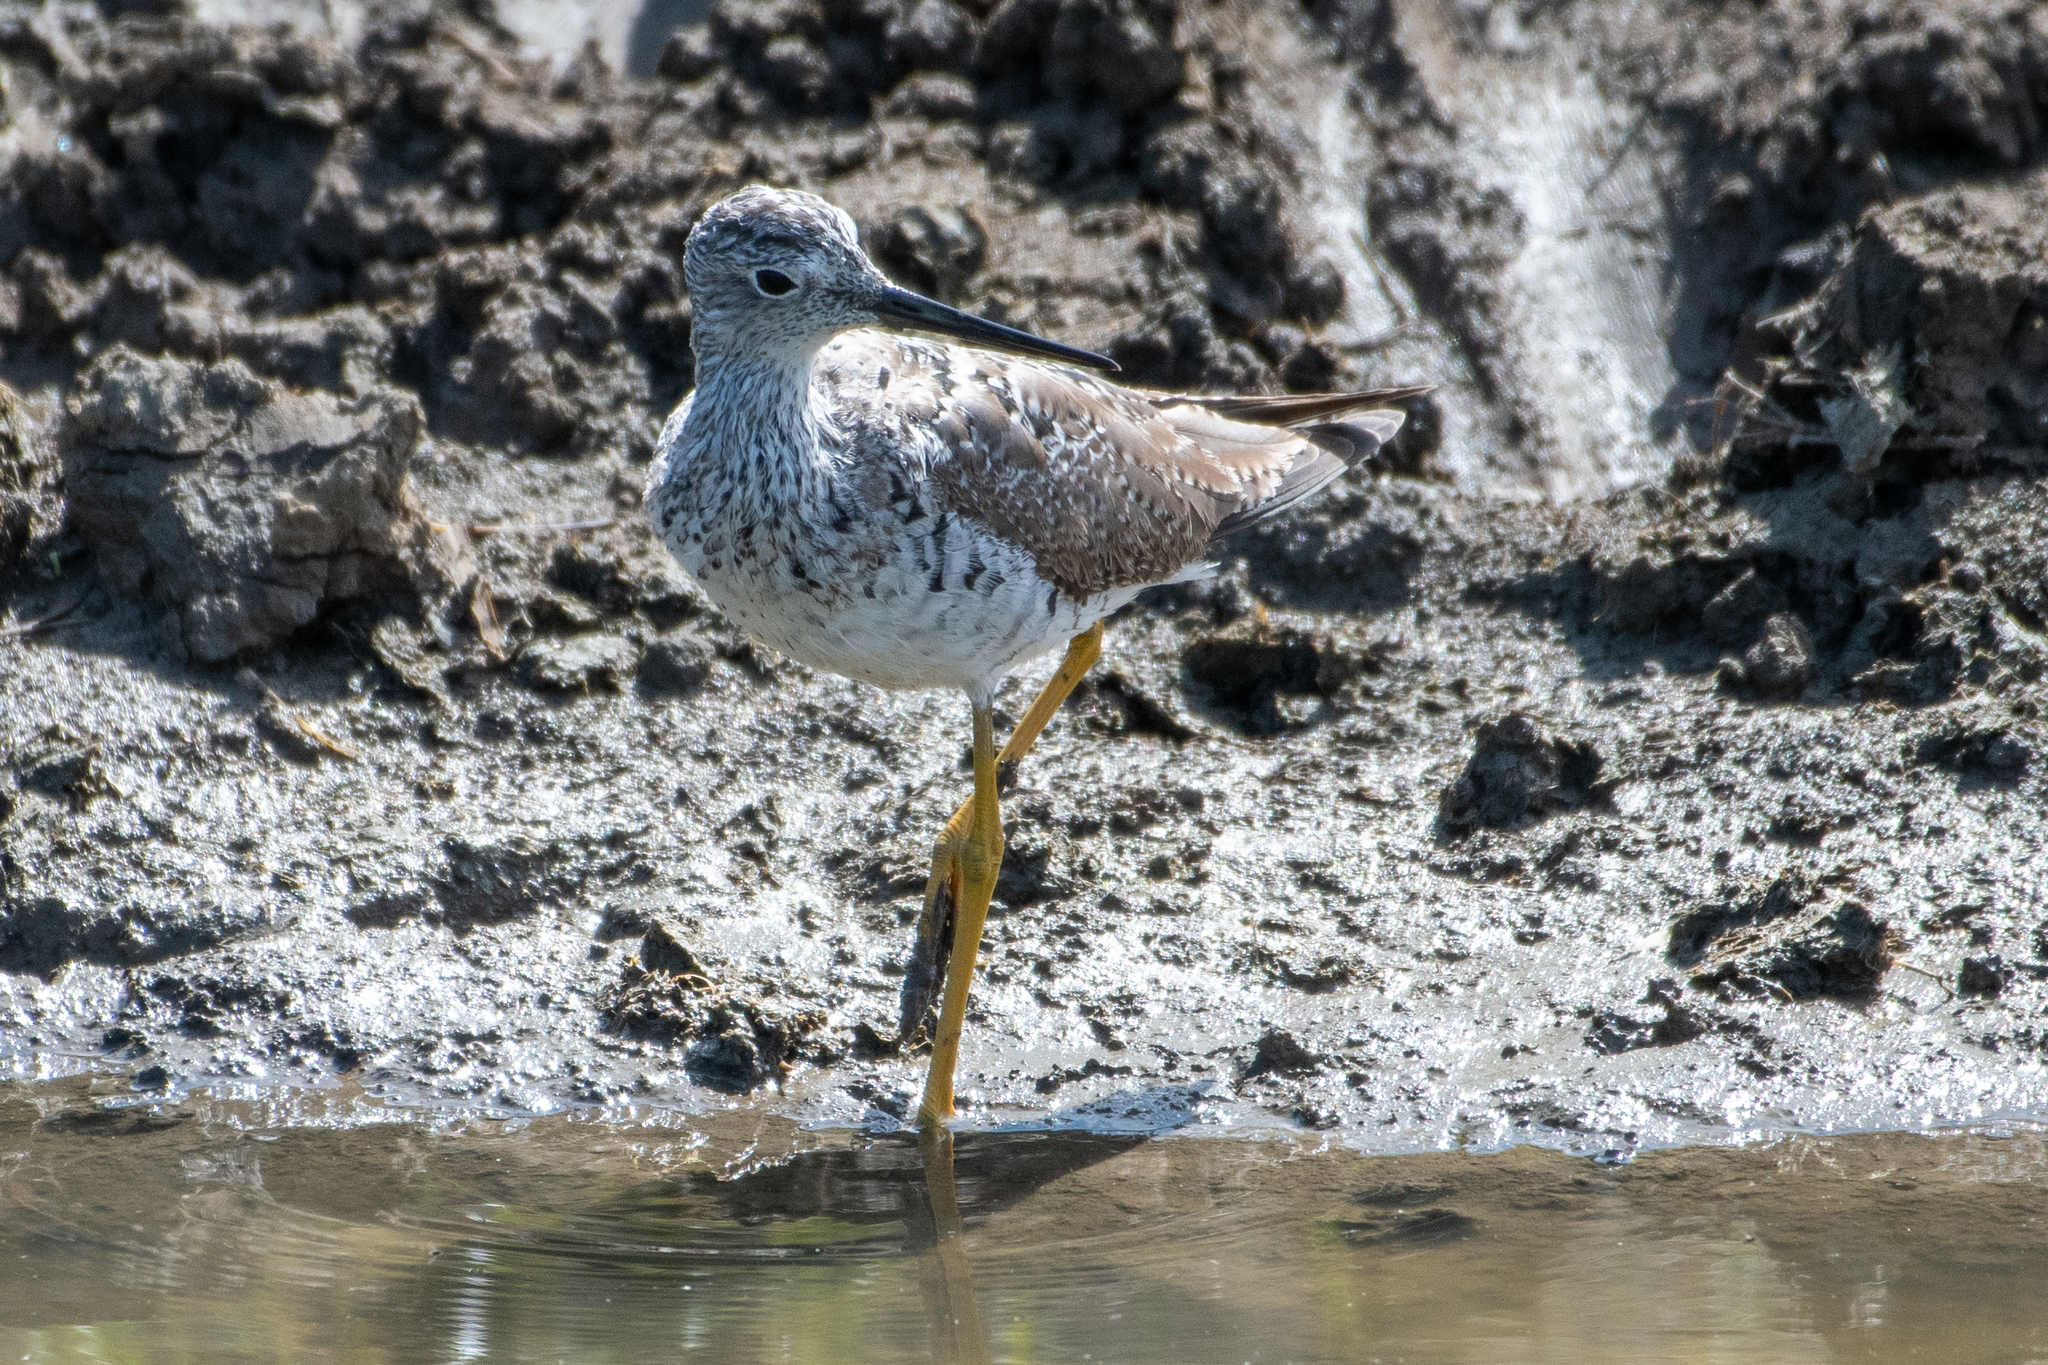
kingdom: Animalia
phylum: Chordata
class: Aves
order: Charadriiformes
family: Scolopacidae
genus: Tringa
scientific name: Tringa melanoleuca
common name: Greater yellowlegs
